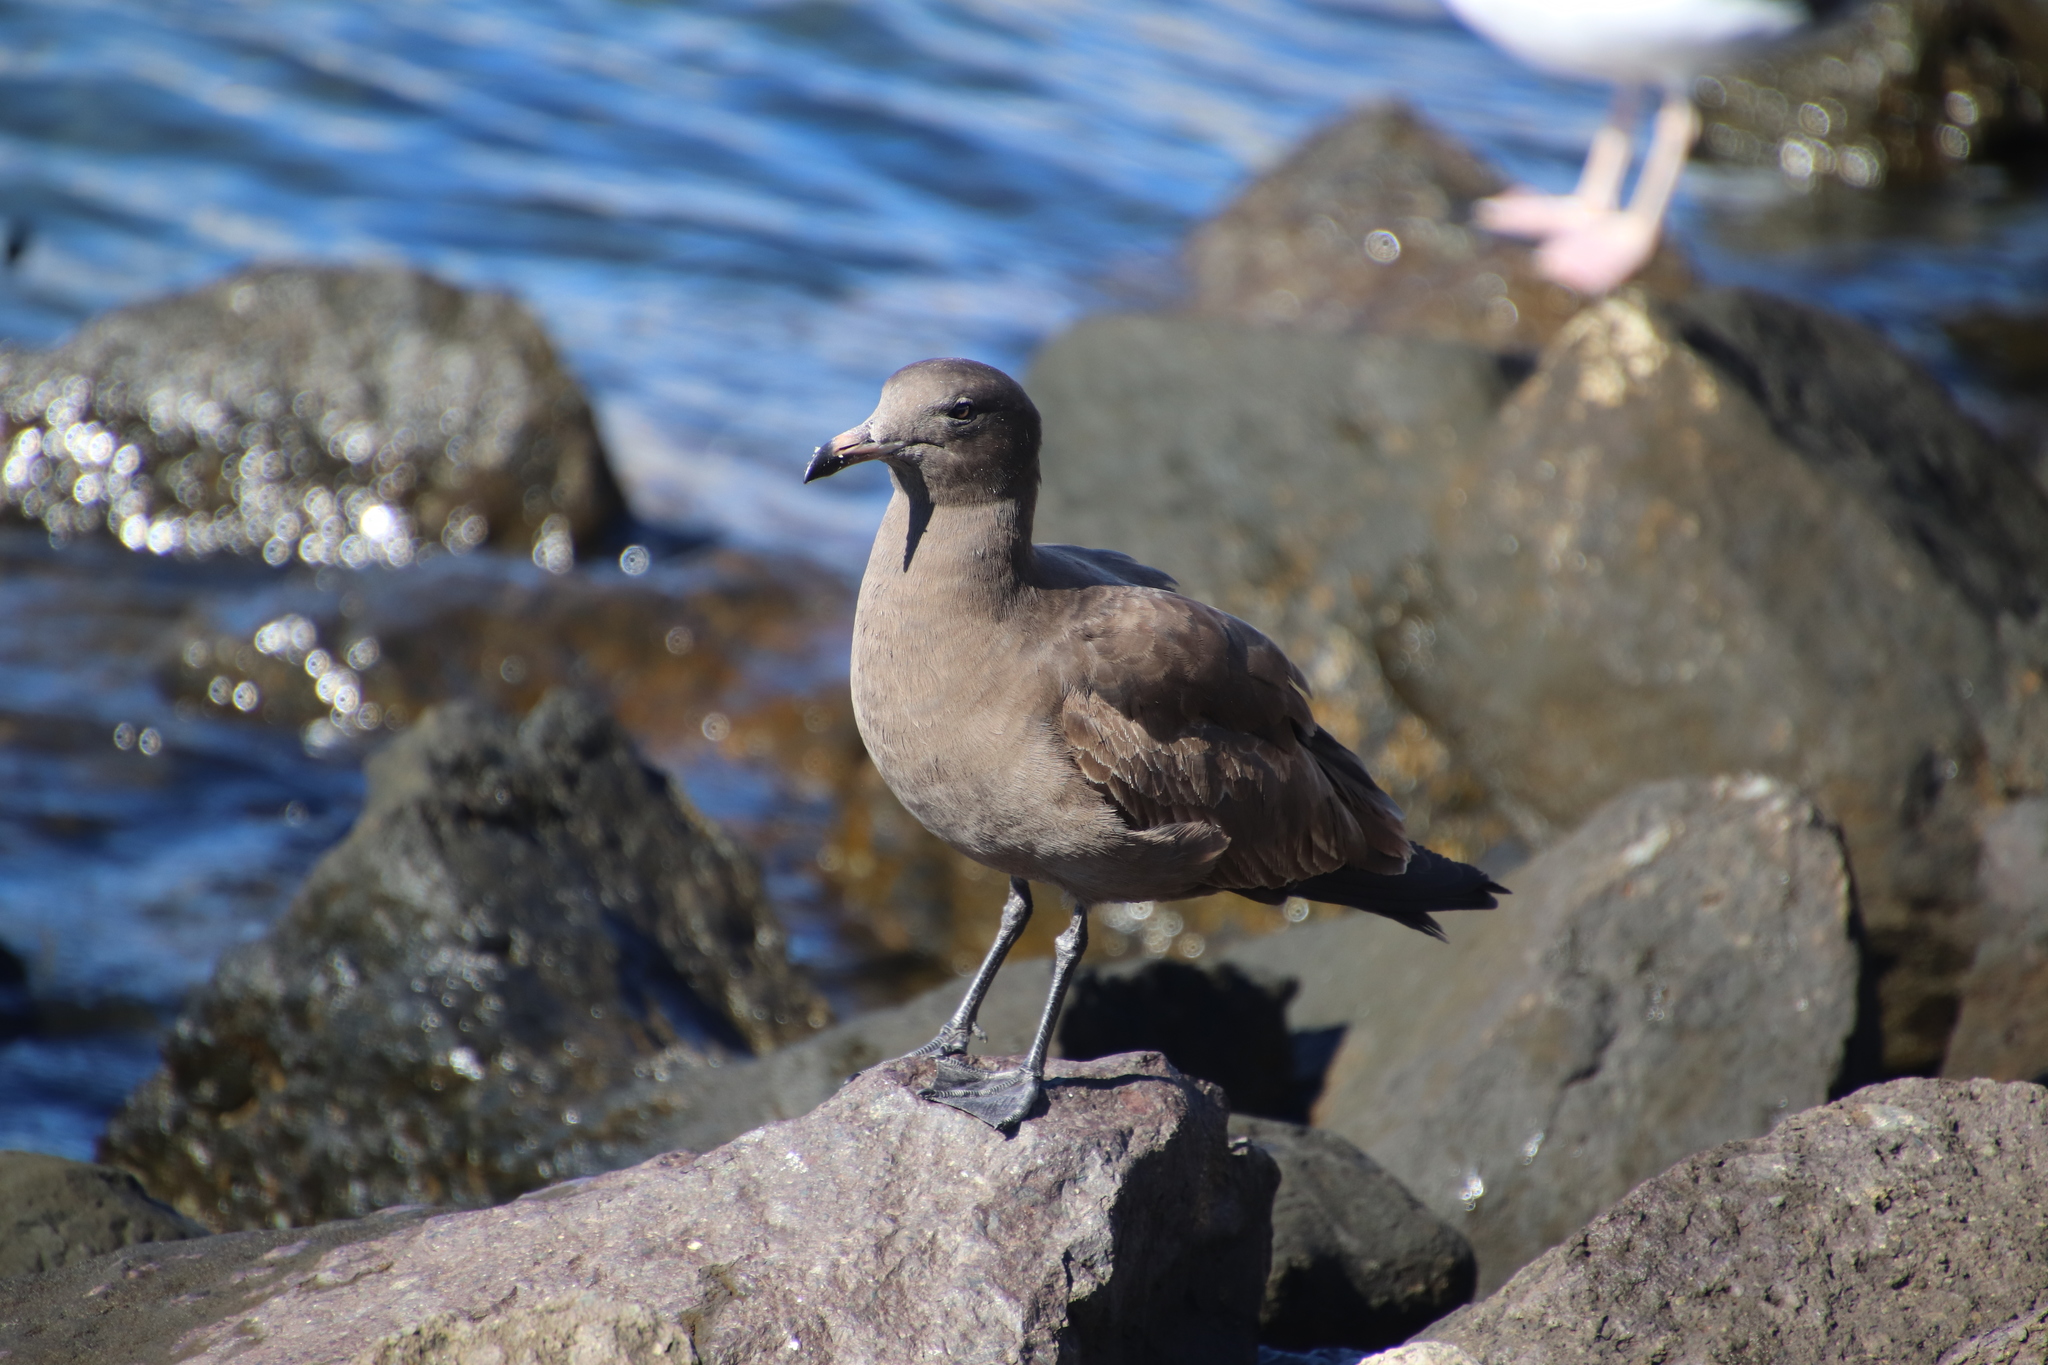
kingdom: Animalia
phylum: Chordata
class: Aves
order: Charadriiformes
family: Laridae
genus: Larus
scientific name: Larus heermanni
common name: Heermann's gull
